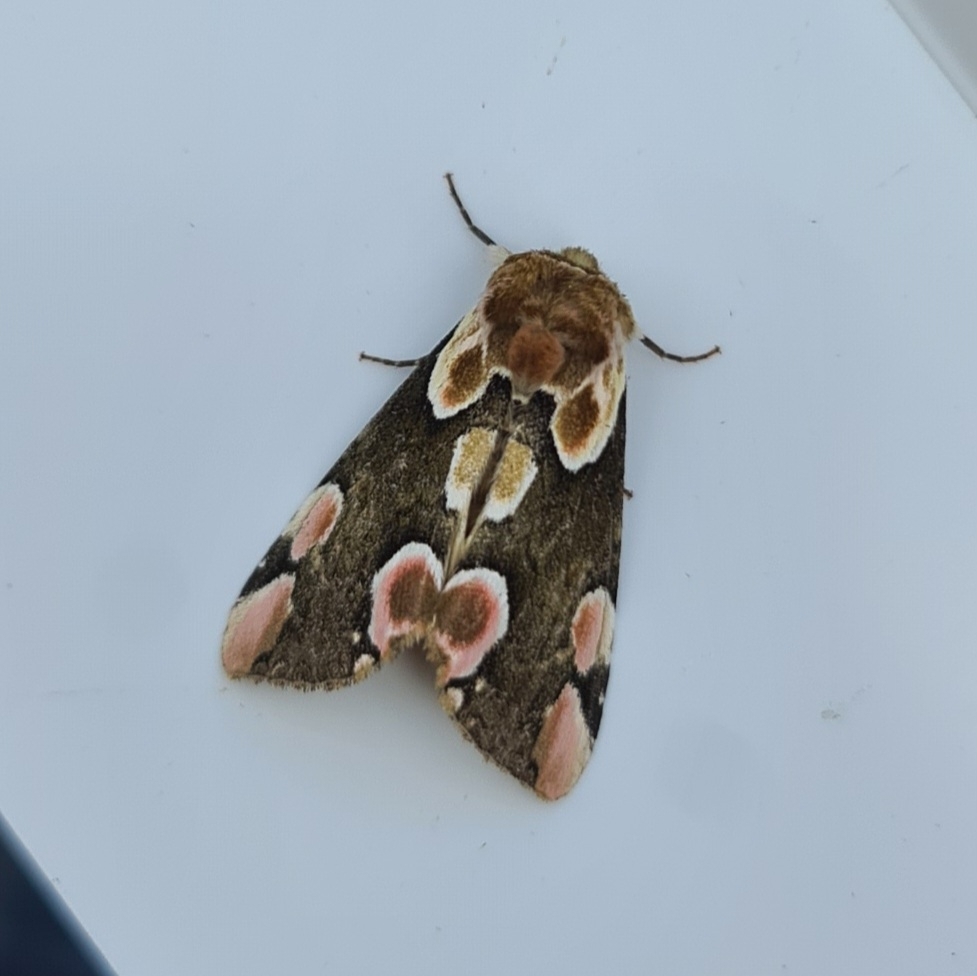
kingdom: Animalia
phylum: Arthropoda
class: Insecta
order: Lepidoptera
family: Drepanidae
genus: Thyatira
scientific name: Thyatira batis
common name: Peach blossom
